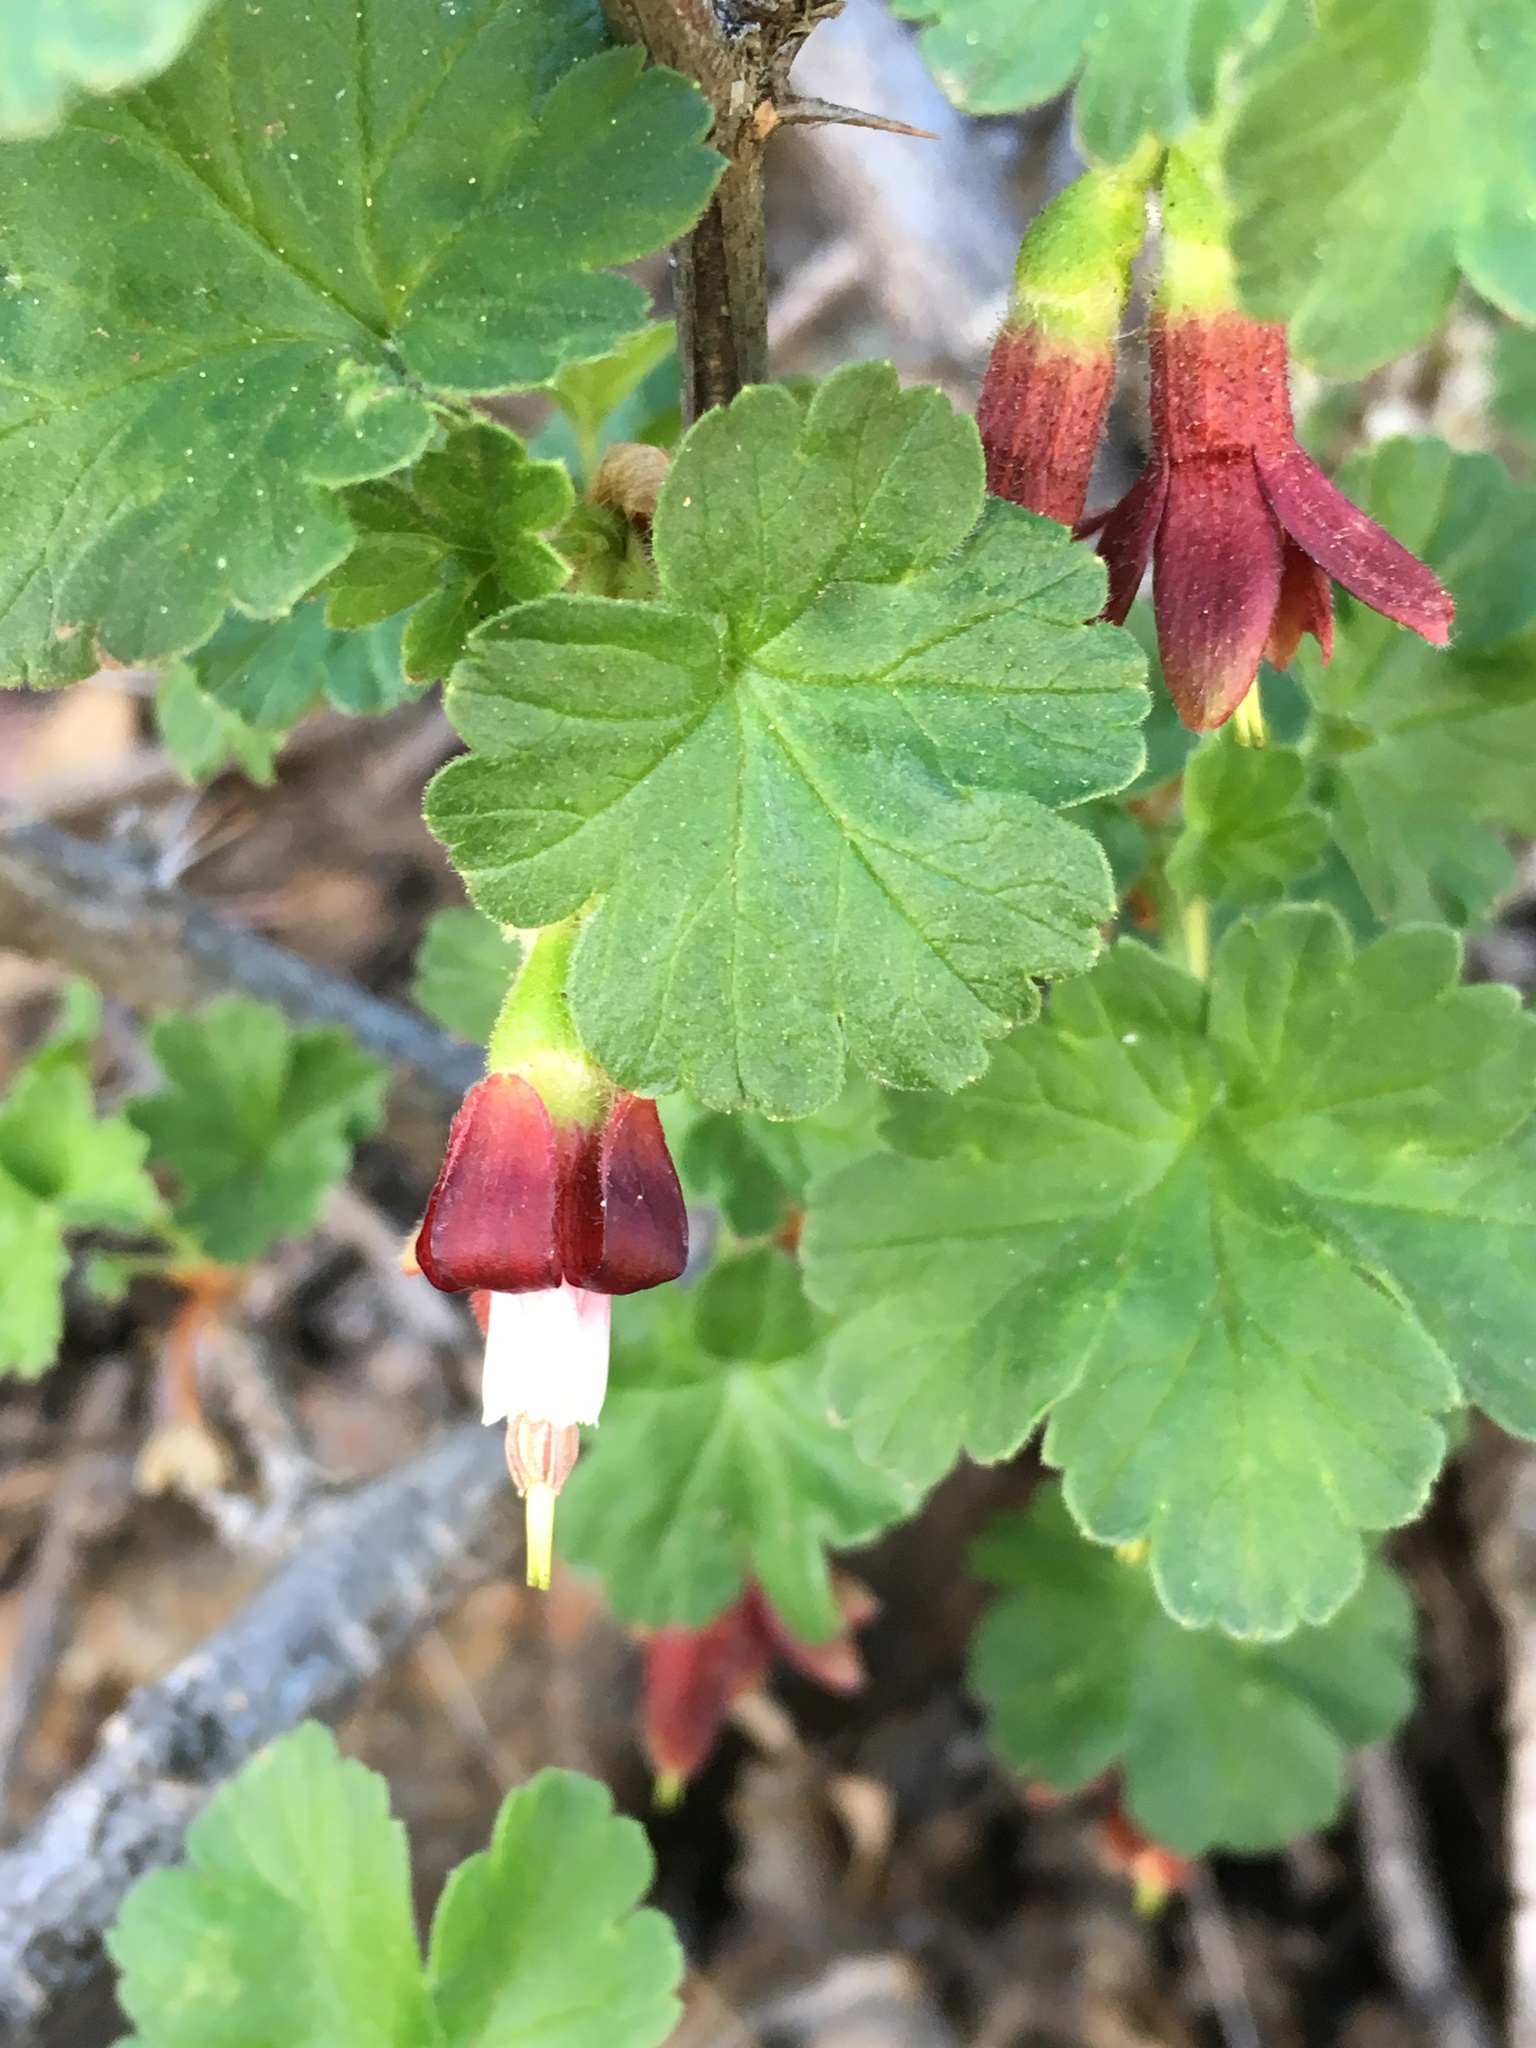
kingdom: Plantae
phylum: Tracheophyta
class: Magnoliopsida
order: Saxifragales
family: Grossulariaceae
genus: Ribes
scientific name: Ribes roezlii
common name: Sierra gooseberry
